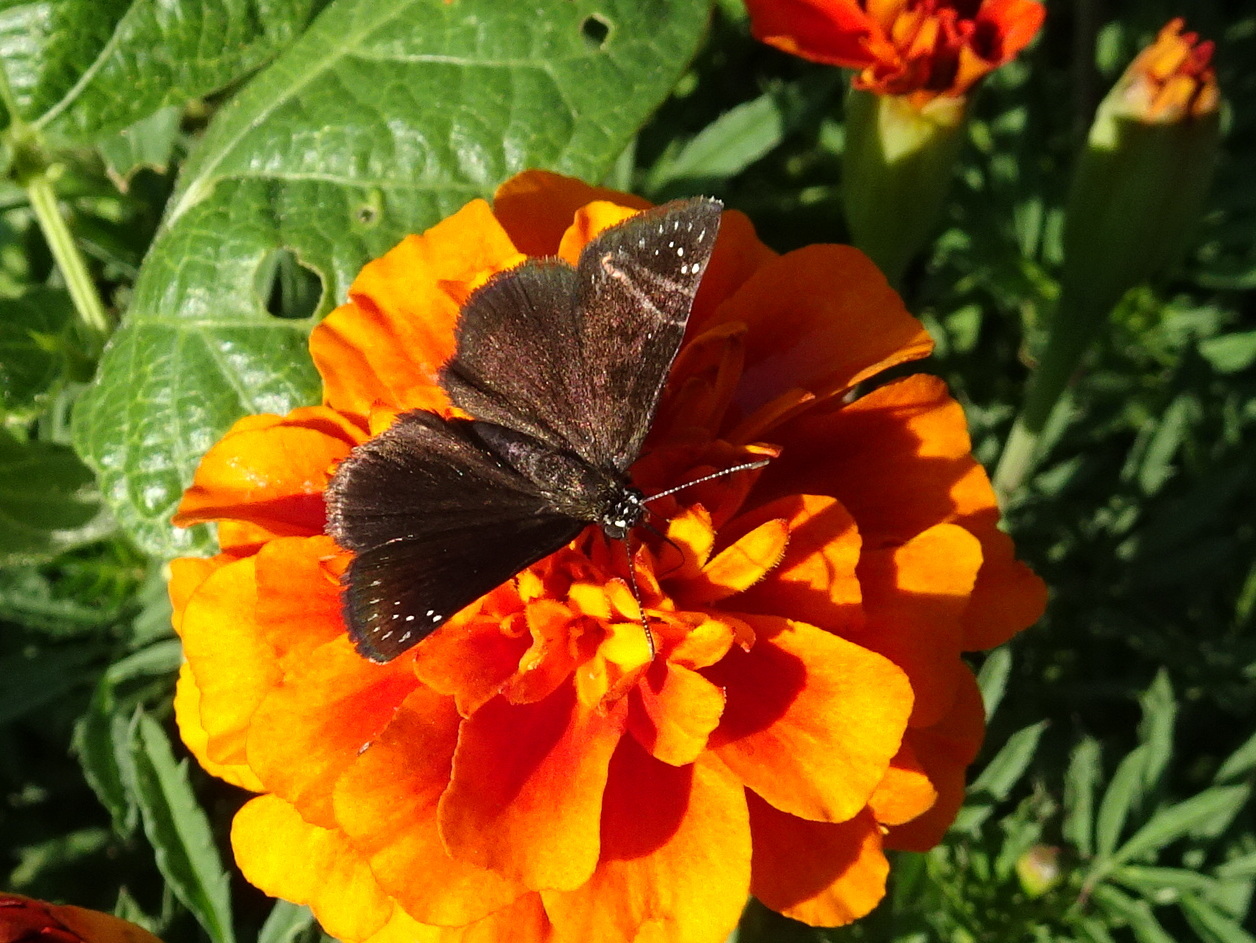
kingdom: Animalia
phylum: Arthropoda
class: Insecta
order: Lepidoptera
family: Hesperiidae
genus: Pholisora
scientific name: Pholisora catullus
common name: Common sootywing
